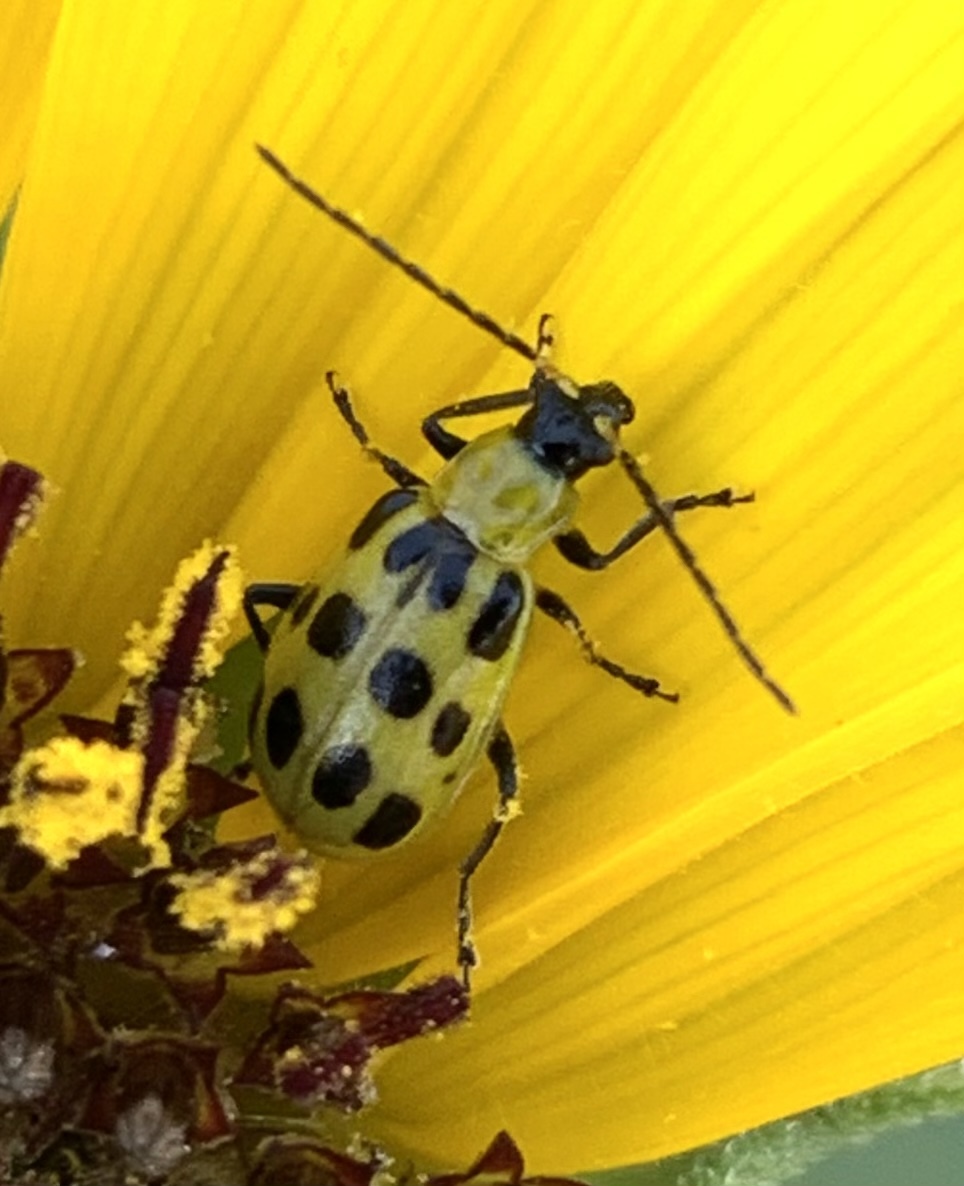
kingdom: Animalia
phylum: Arthropoda
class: Insecta
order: Coleoptera
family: Chrysomelidae
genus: Diabrotica
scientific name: Diabrotica undecimpunctata
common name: Spotted cucumber beetle
